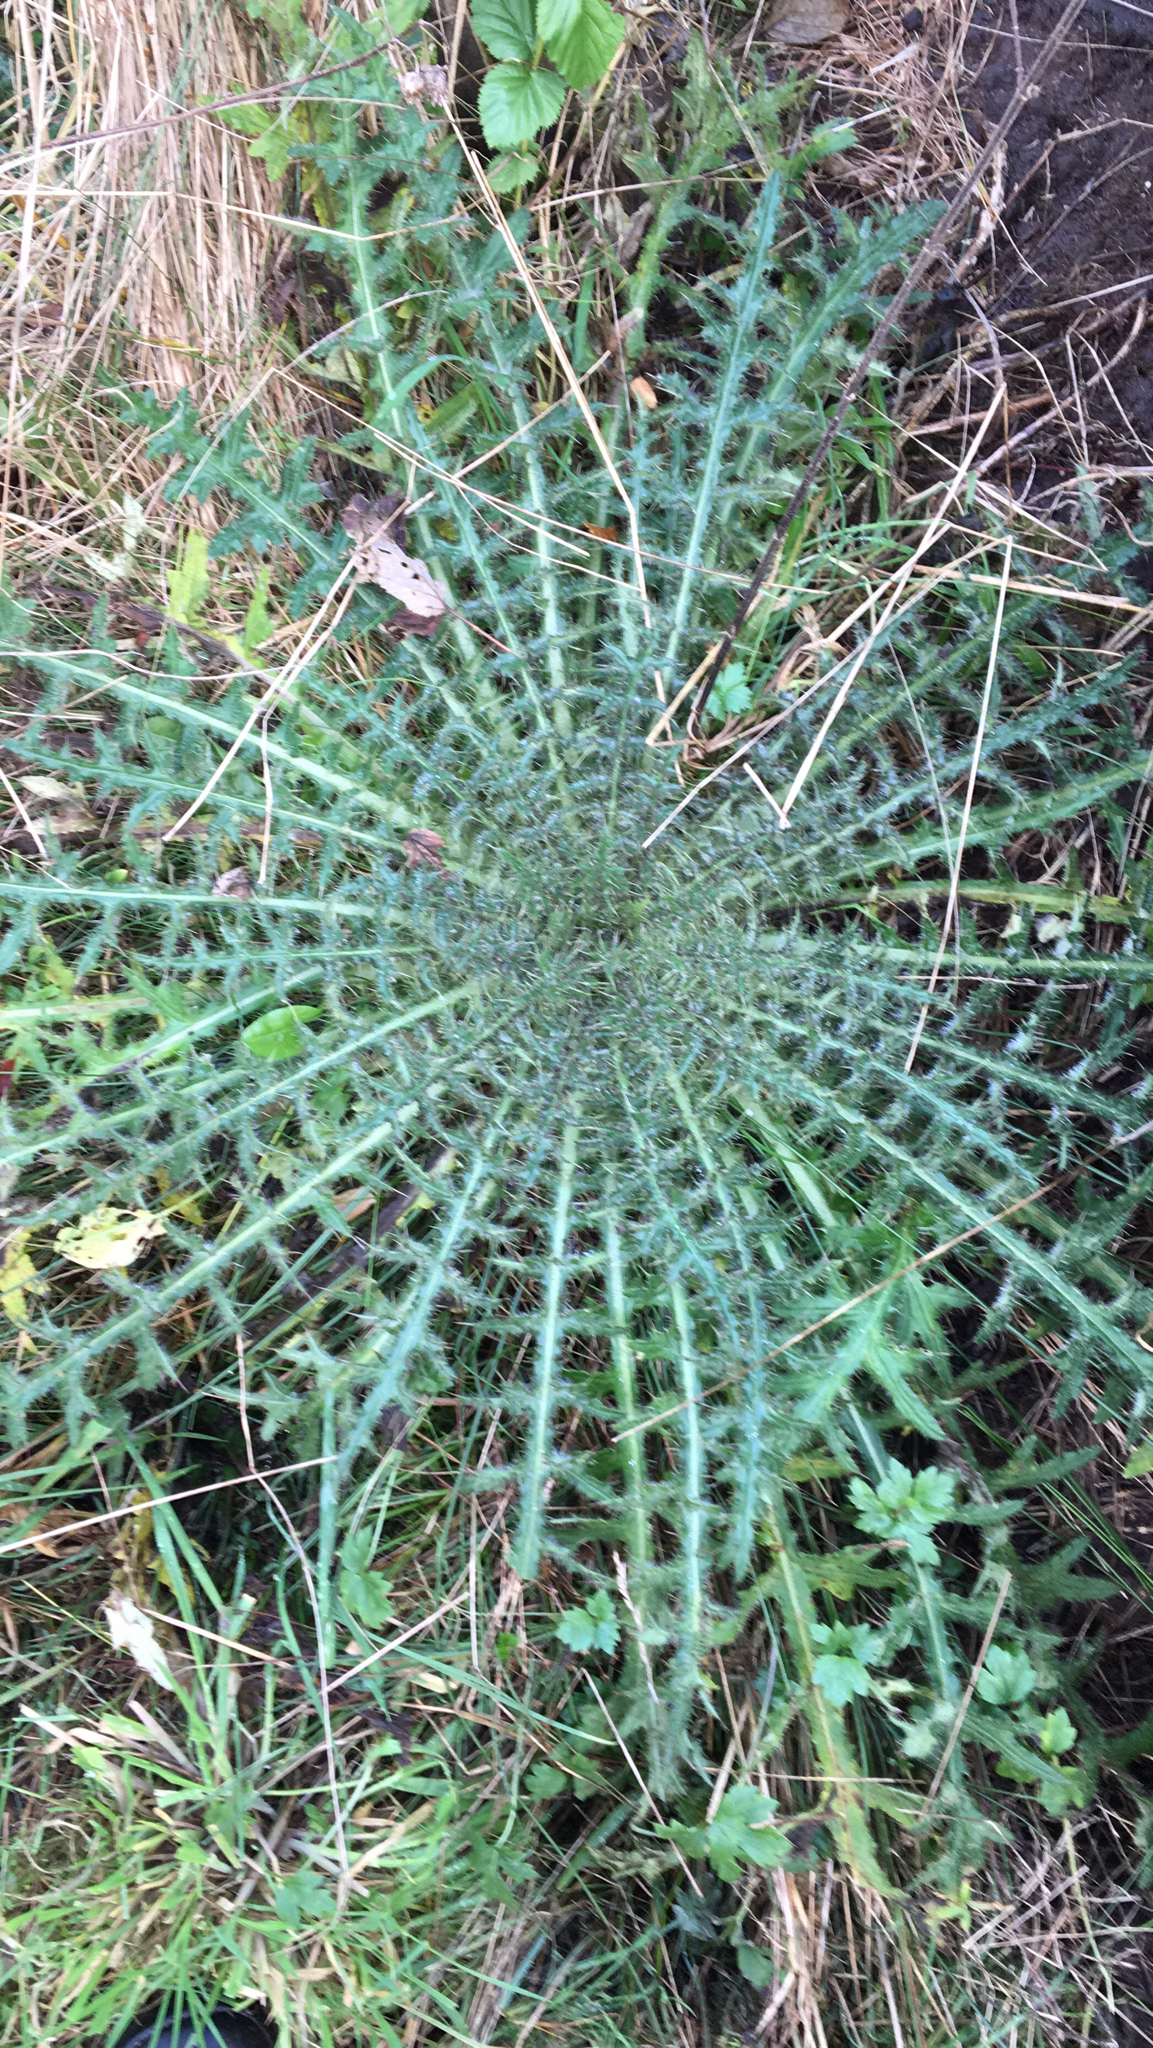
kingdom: Plantae
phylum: Tracheophyta
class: Magnoliopsida
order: Asterales
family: Asteraceae
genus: Cirsium
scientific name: Cirsium palustre
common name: Marsh thistle
